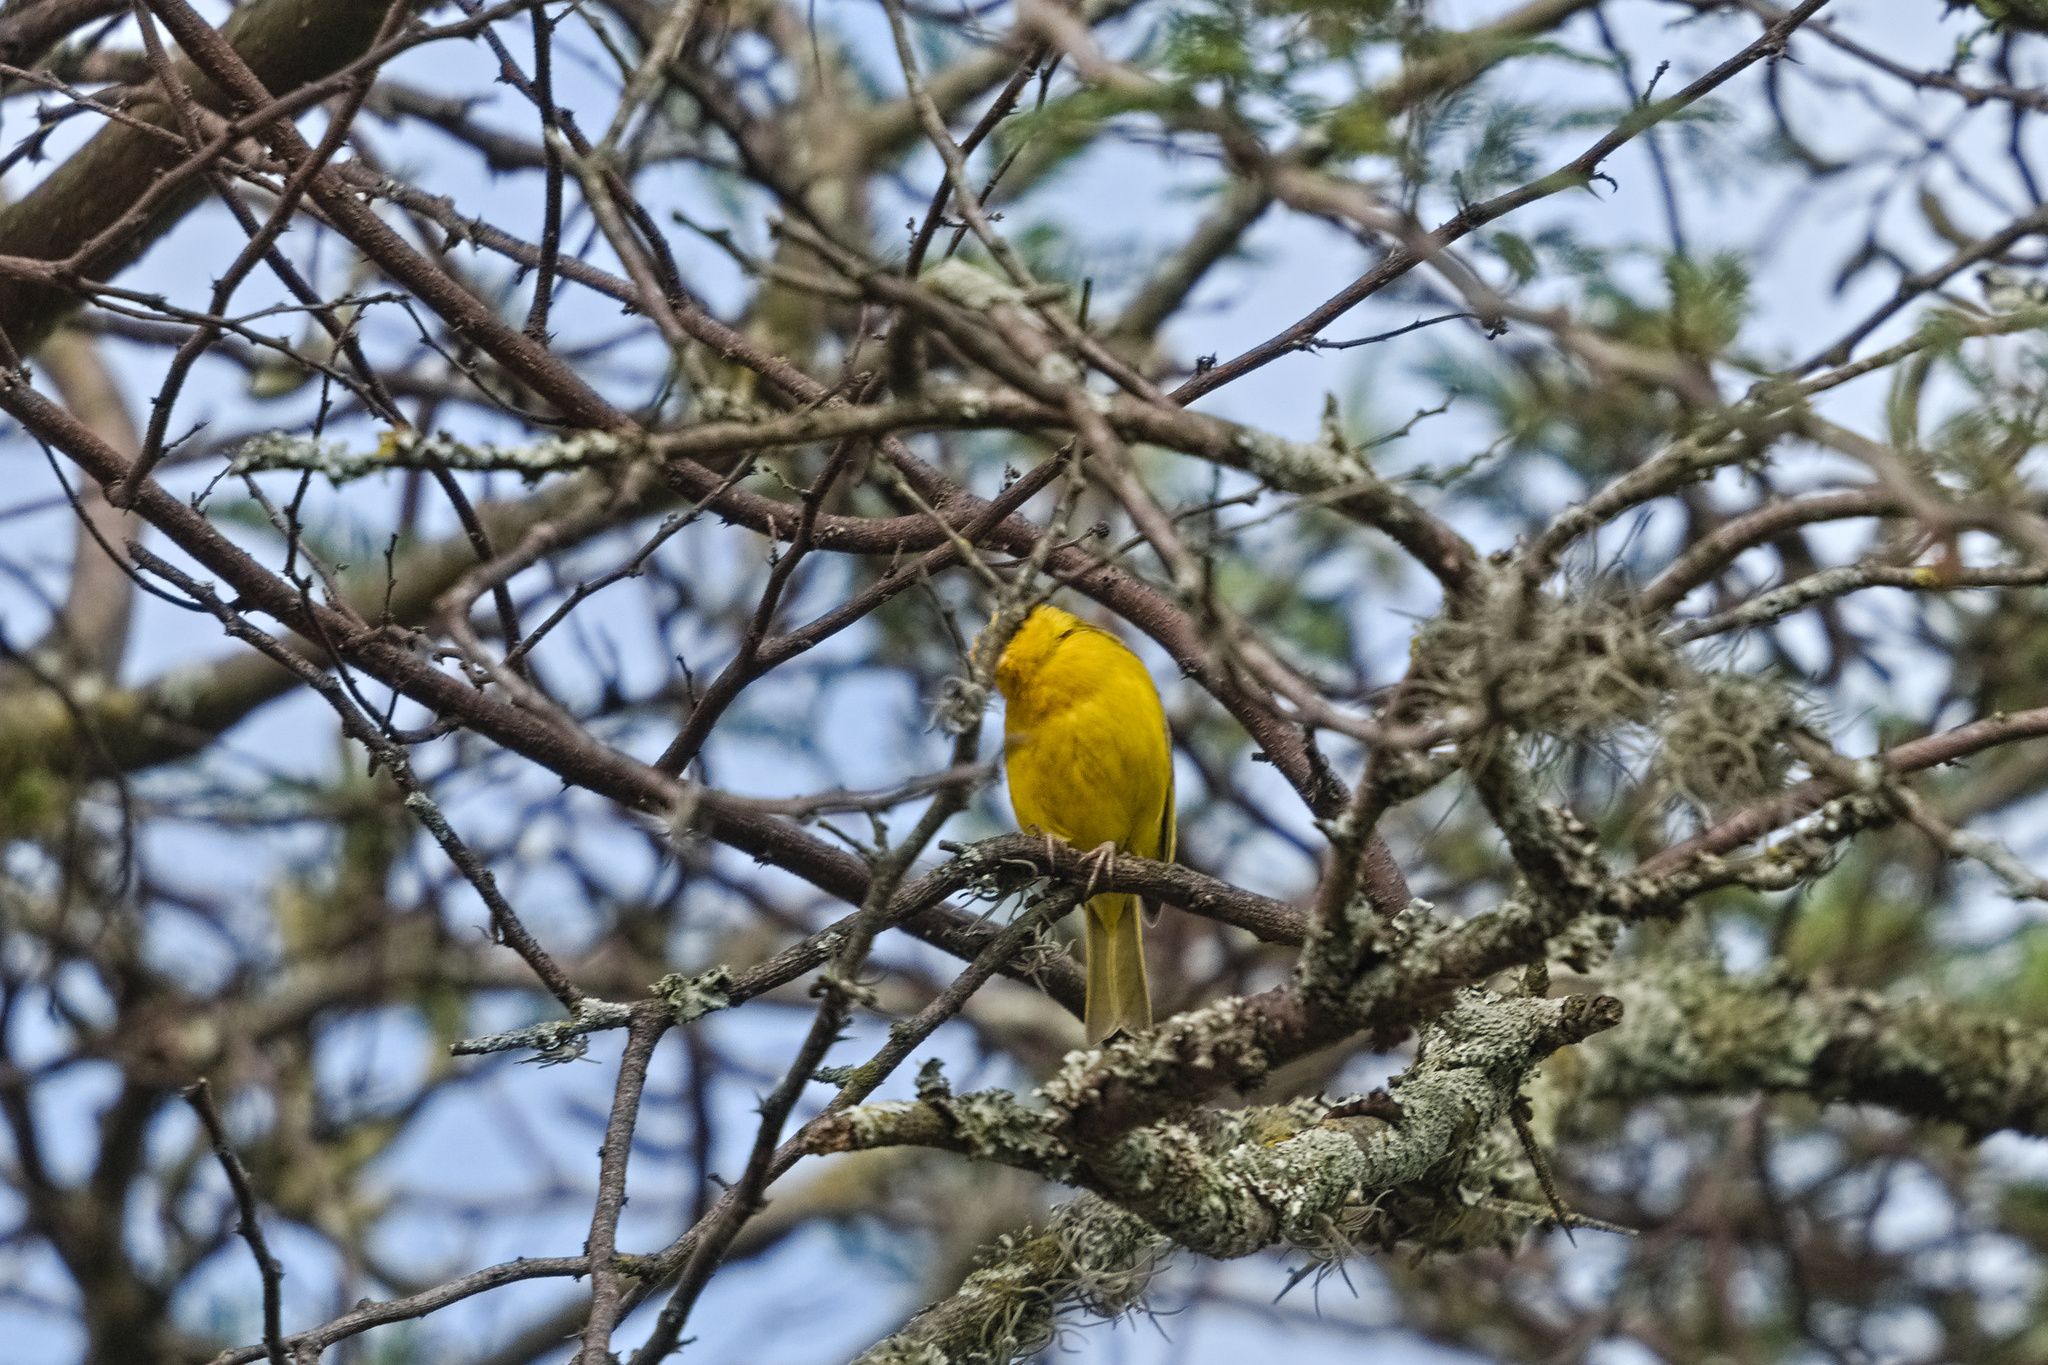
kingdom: Animalia
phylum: Chordata
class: Aves
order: Passeriformes
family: Thraupidae
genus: Sicalis
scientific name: Sicalis flaveola
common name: Saffron finch
